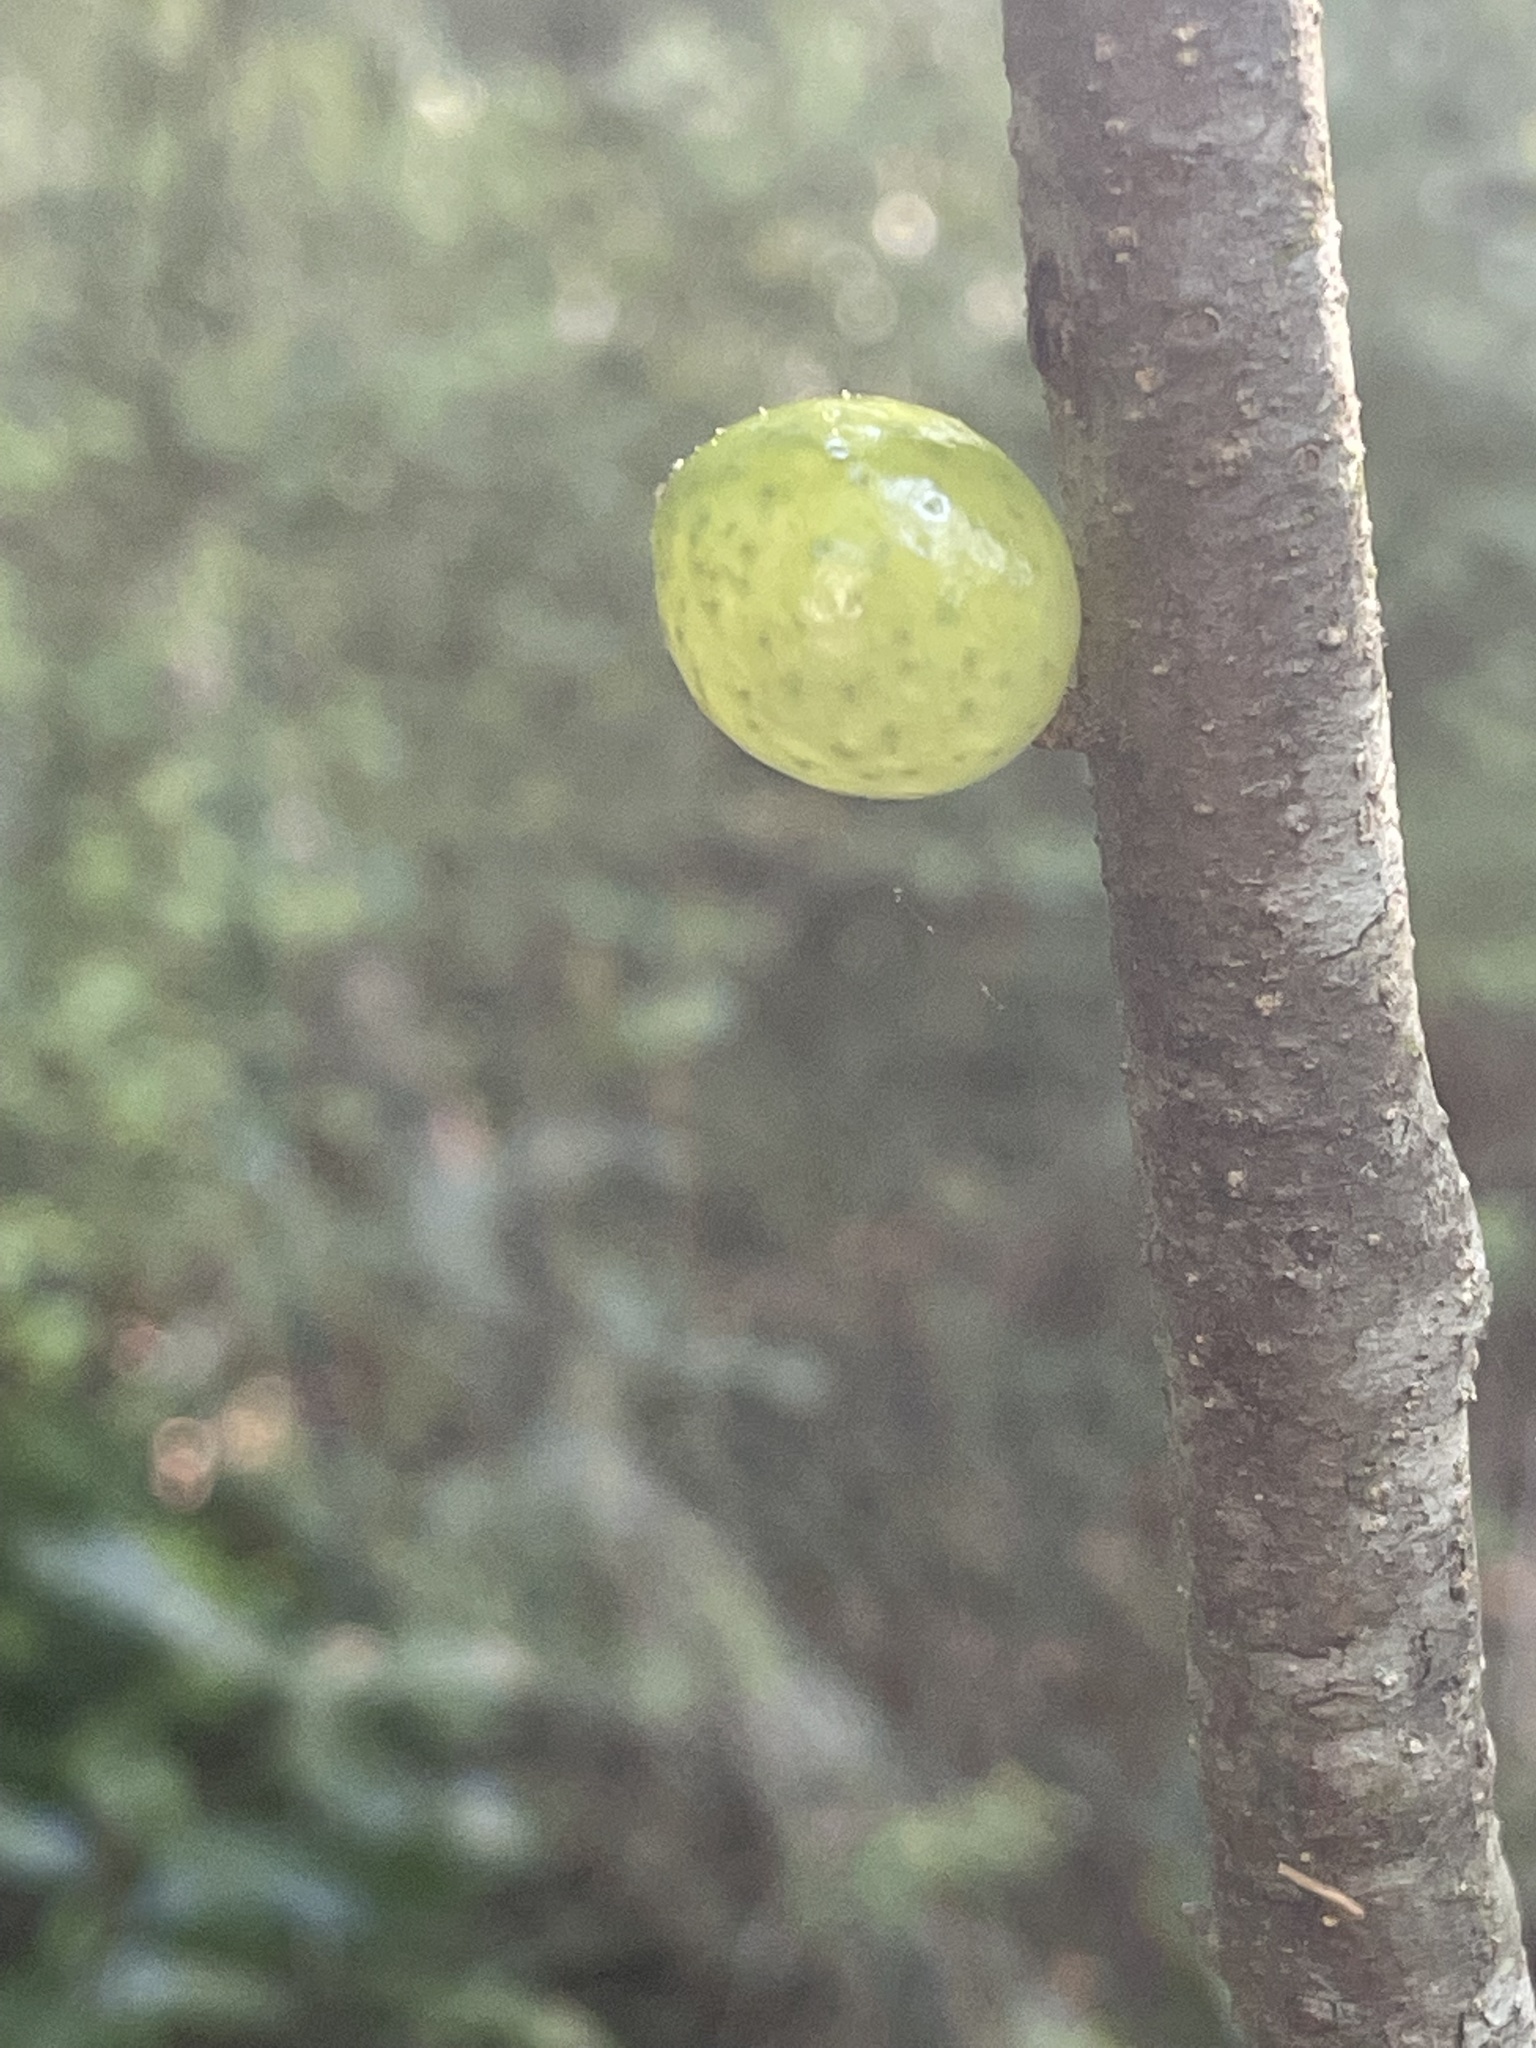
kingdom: Animalia
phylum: Arthropoda
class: Insecta
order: Hymenoptera
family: Cynipidae
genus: Amphibolips
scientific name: Amphibolips
